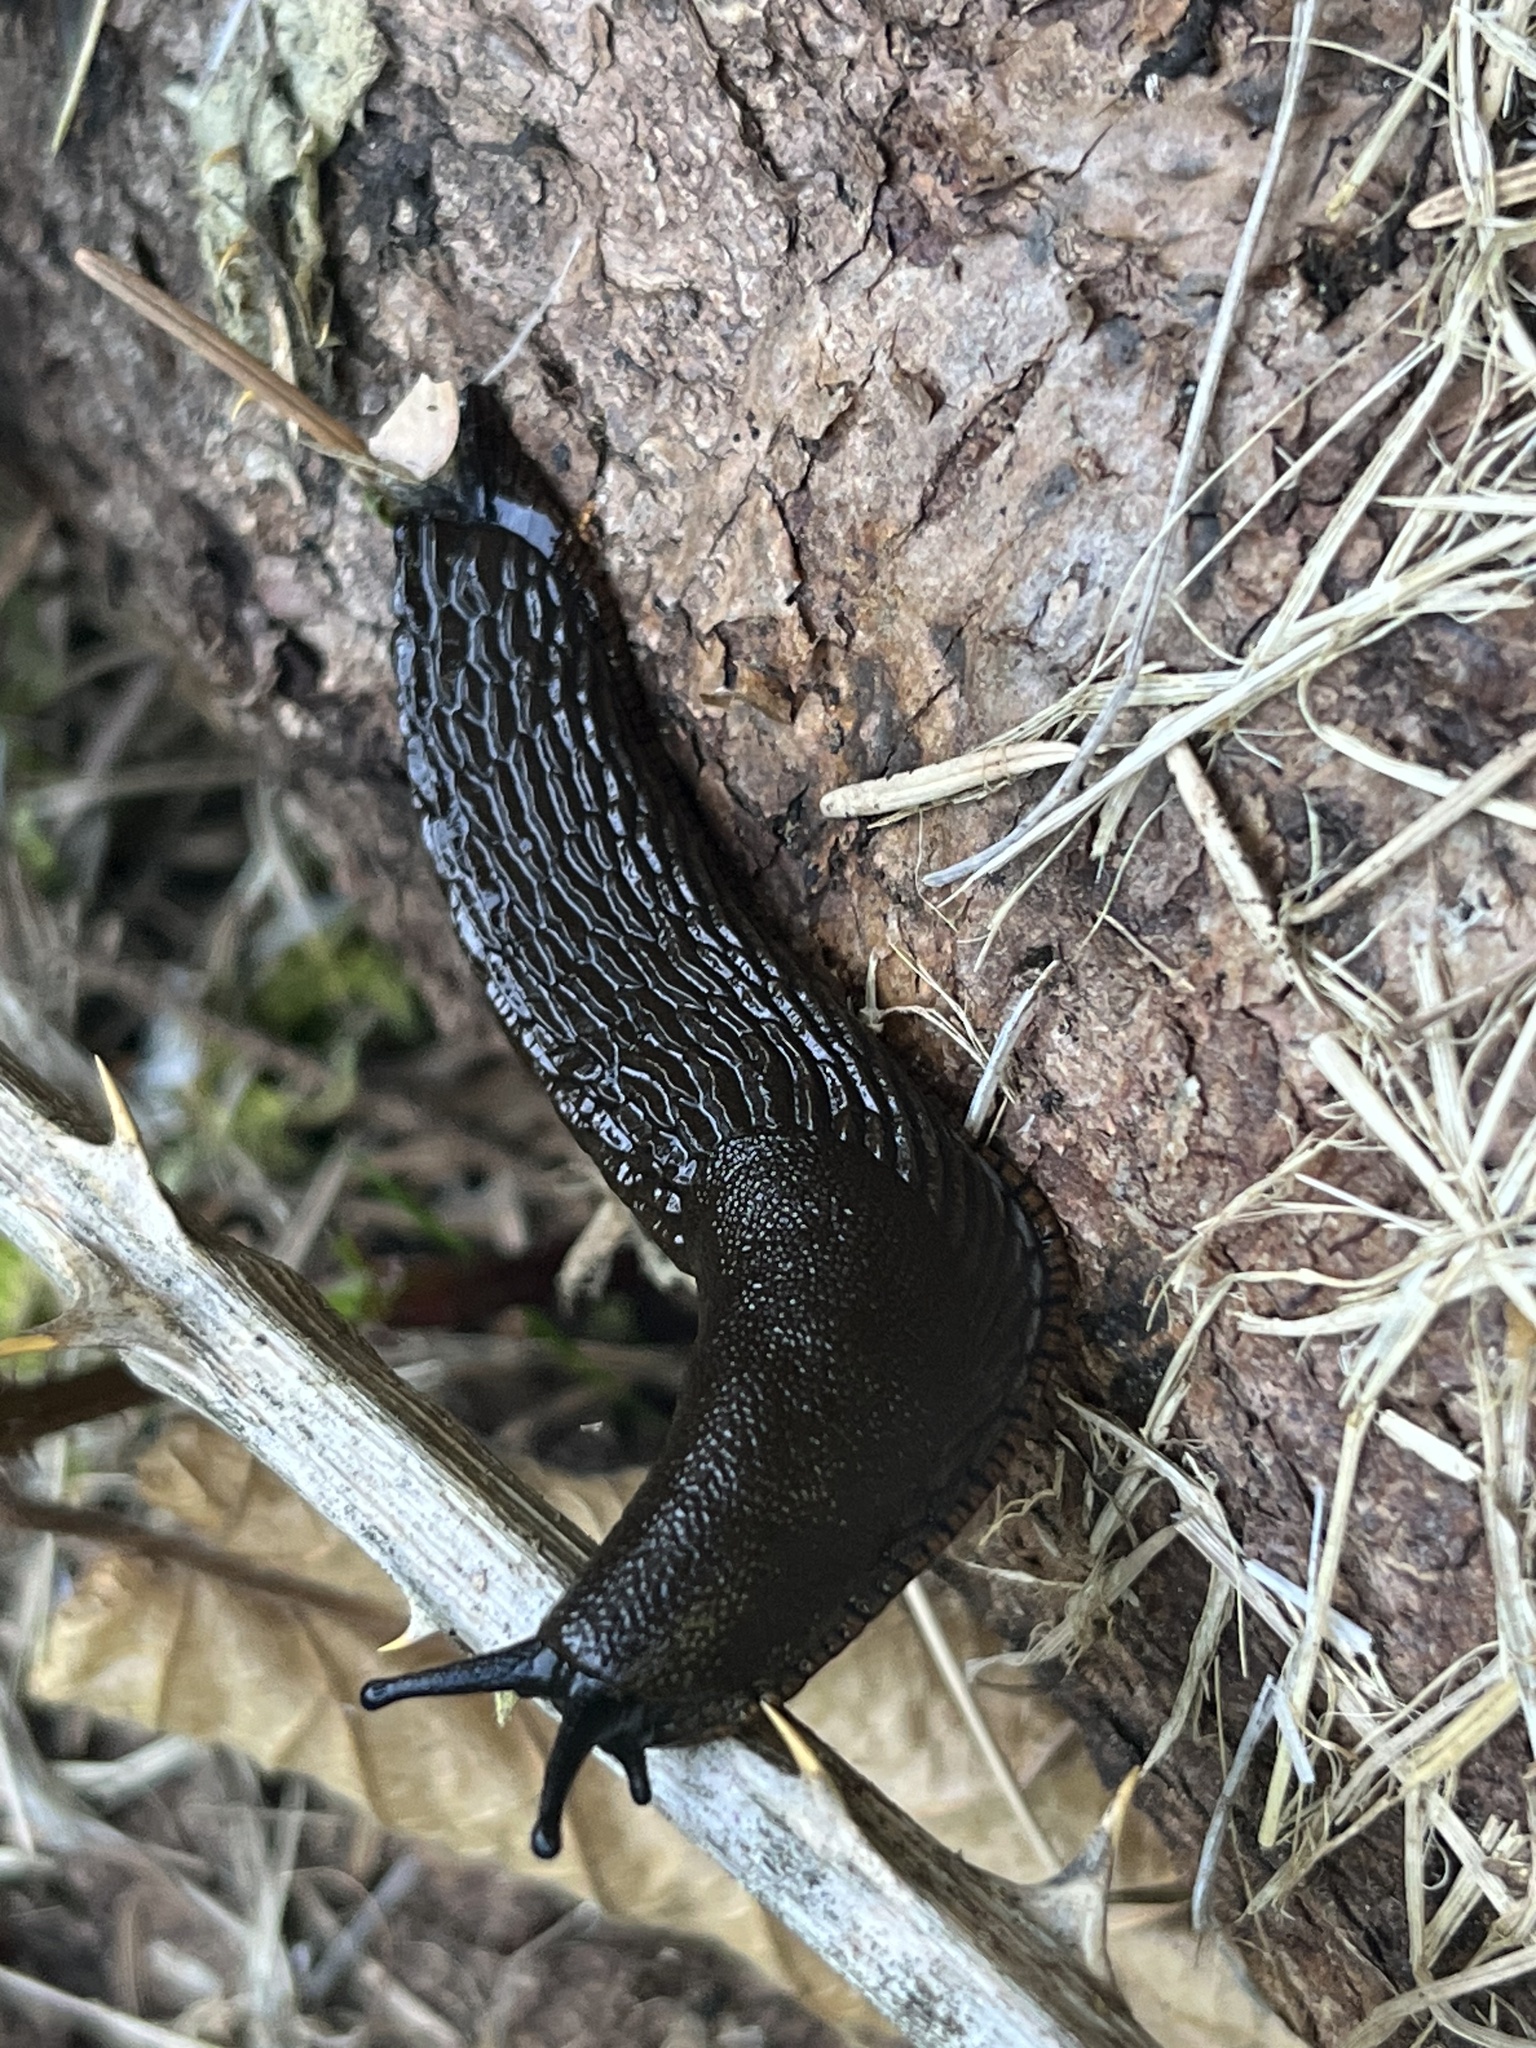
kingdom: Animalia
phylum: Mollusca
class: Gastropoda
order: Stylommatophora
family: Arionidae
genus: Arion
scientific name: Arion
